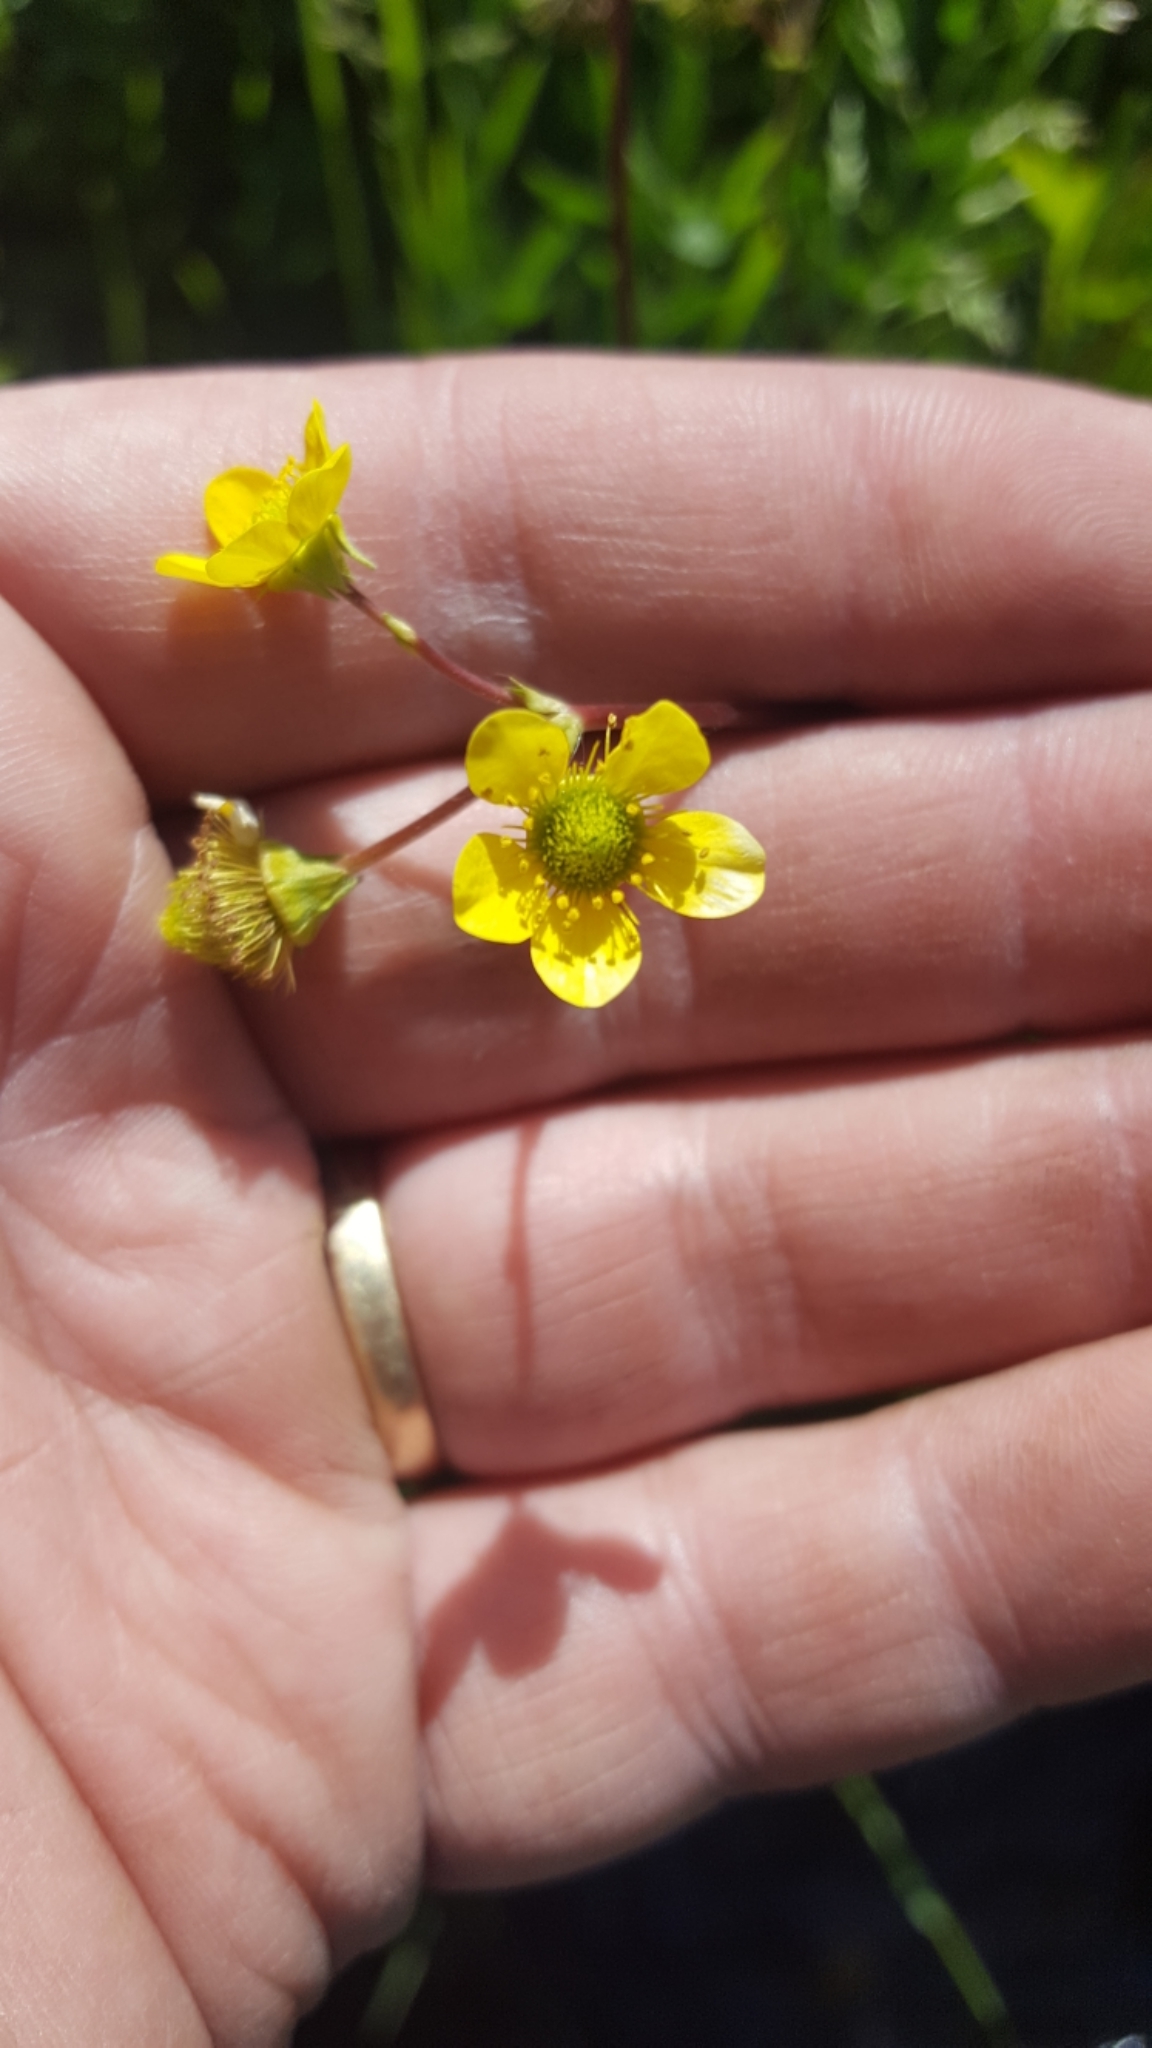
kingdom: Plantae
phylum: Tracheophyta
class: Magnoliopsida
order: Rosales
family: Rosaceae
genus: Geum
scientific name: Geum macrophyllum
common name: Large-leaved avens
